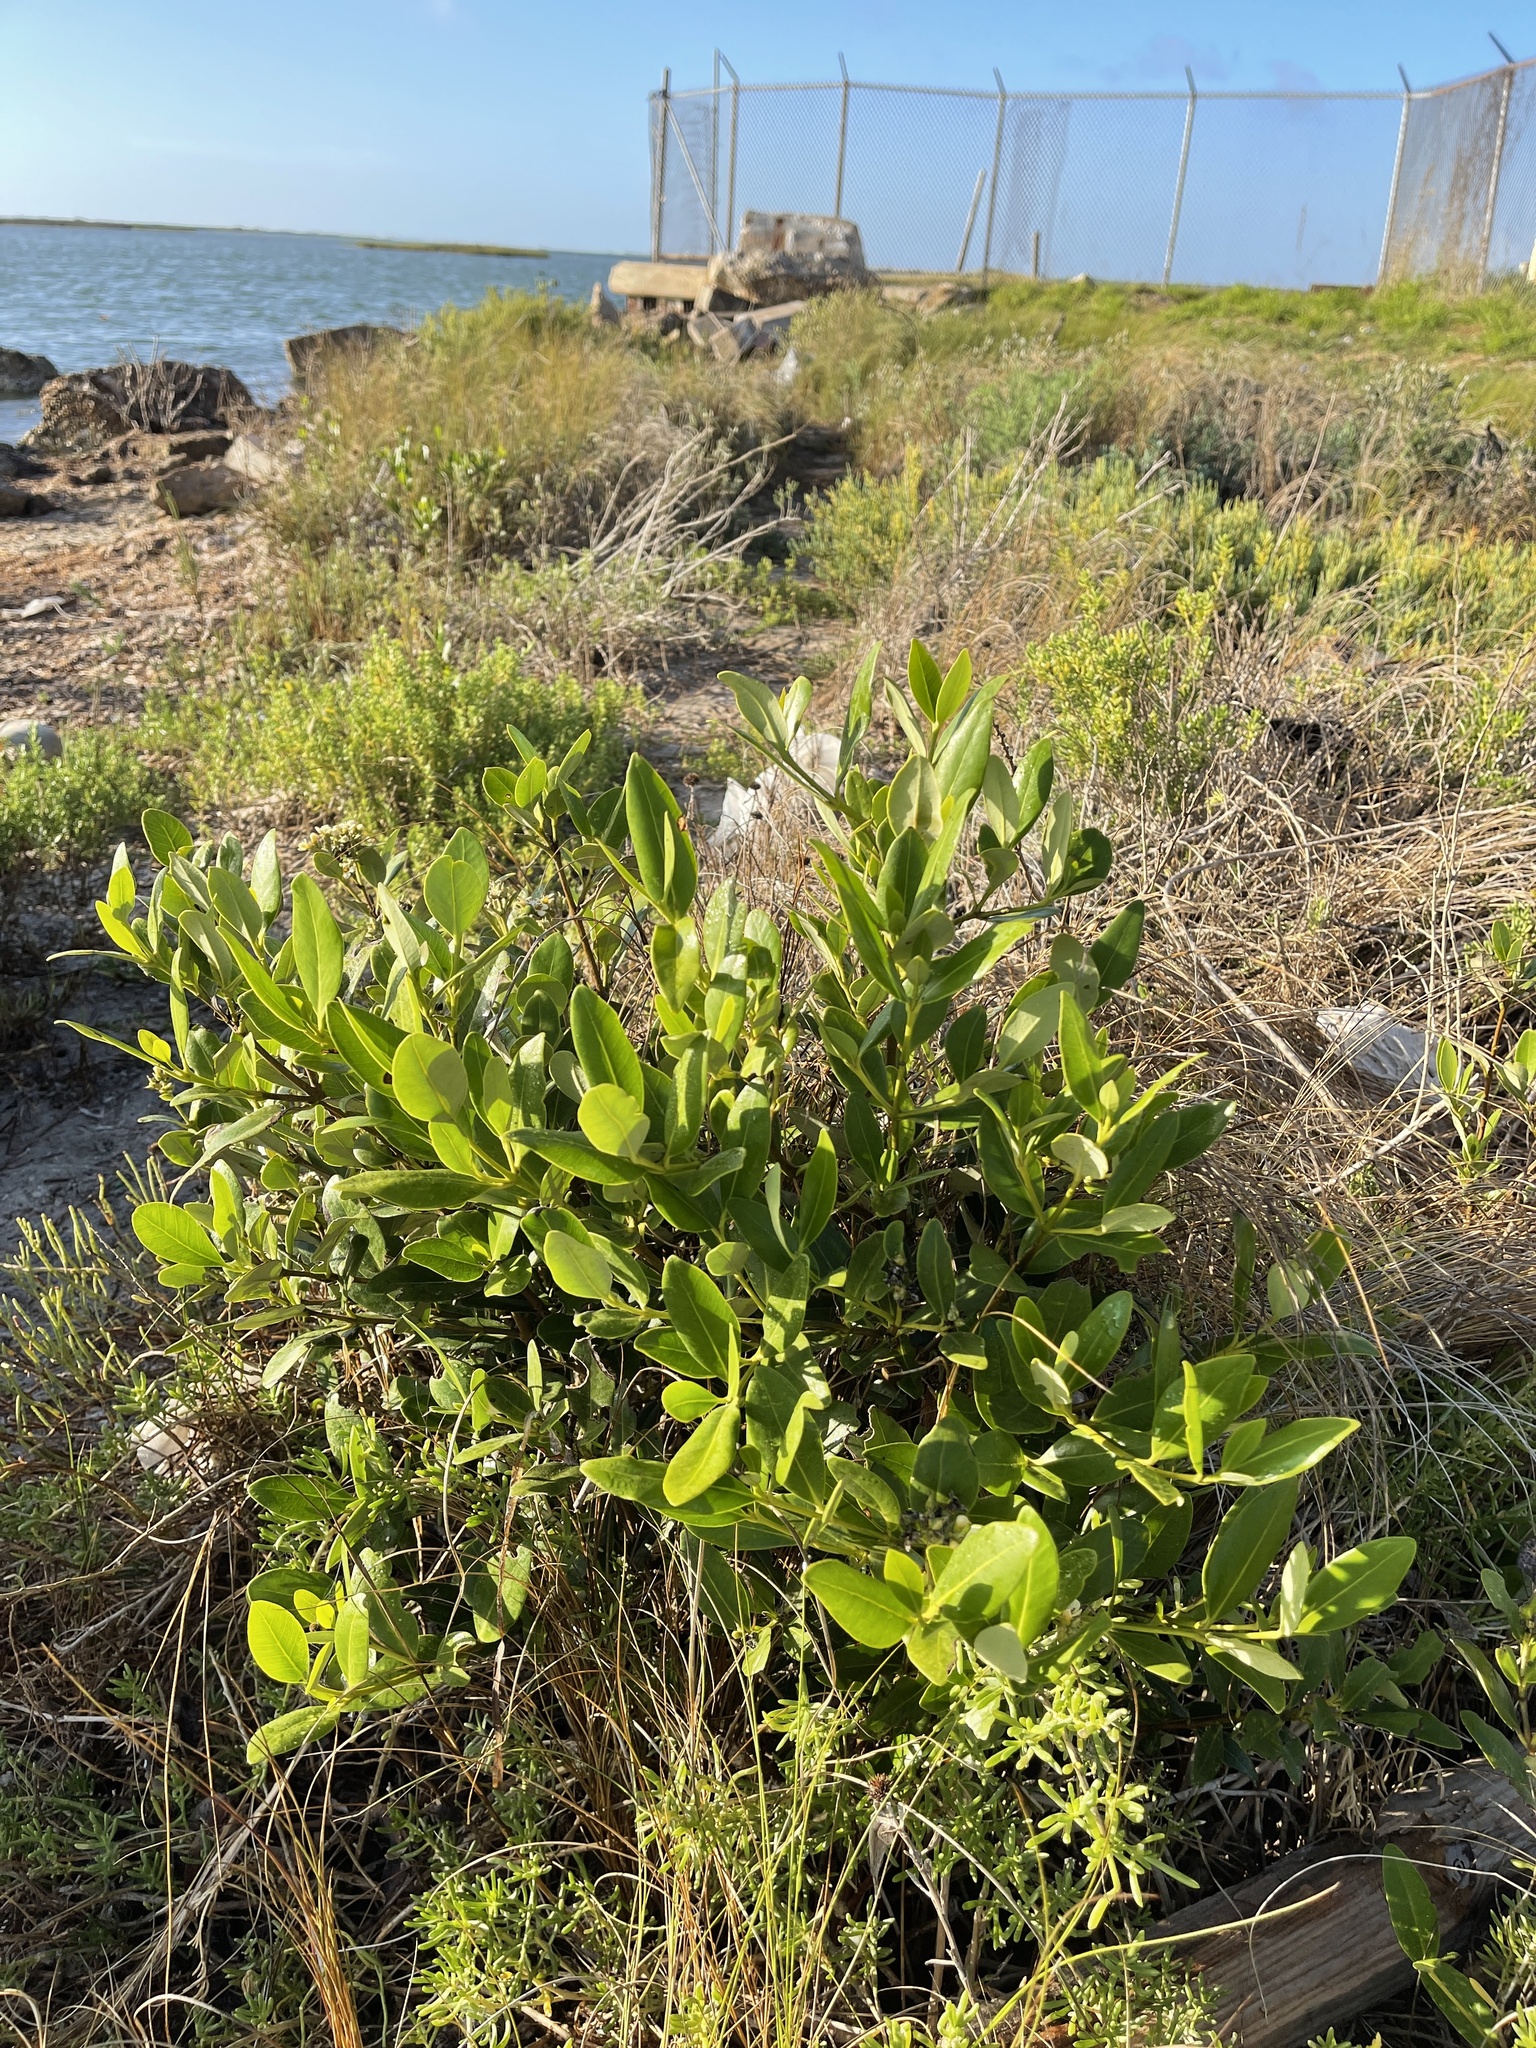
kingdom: Plantae
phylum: Tracheophyta
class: Magnoliopsida
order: Lamiales
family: Acanthaceae
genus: Avicennia
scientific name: Avicennia germinans
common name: Black mangrove
